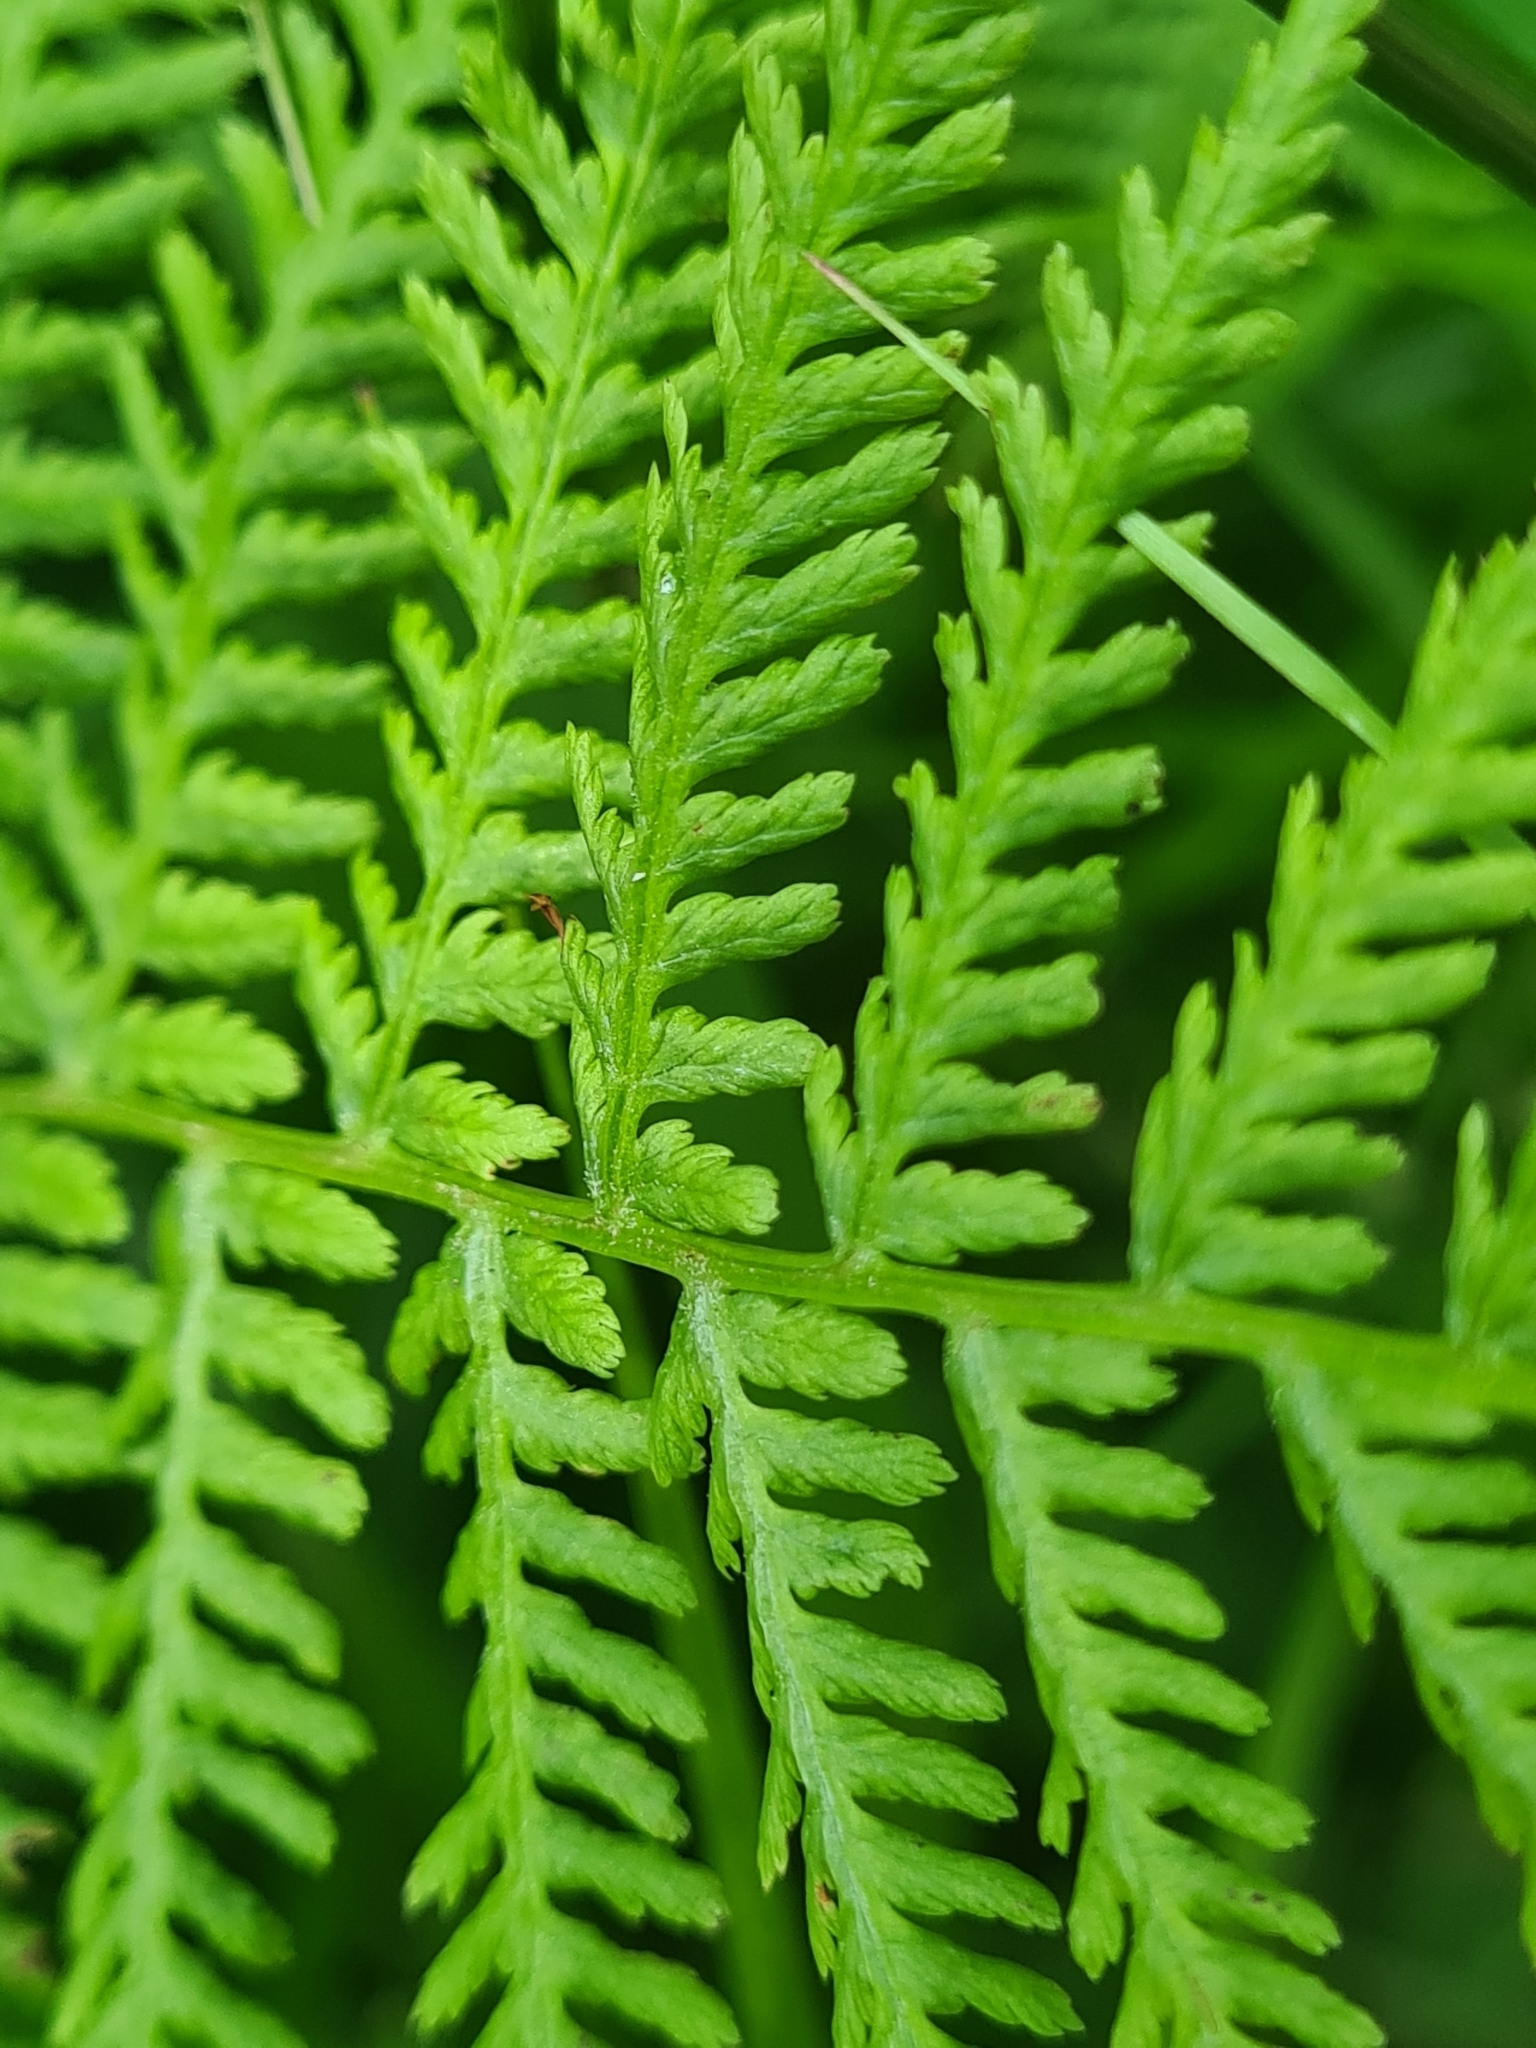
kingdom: Plantae
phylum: Tracheophyta
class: Polypodiopsida
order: Polypodiales
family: Athyriaceae
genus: Athyrium
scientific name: Athyrium filix-femina
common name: Lady fern
